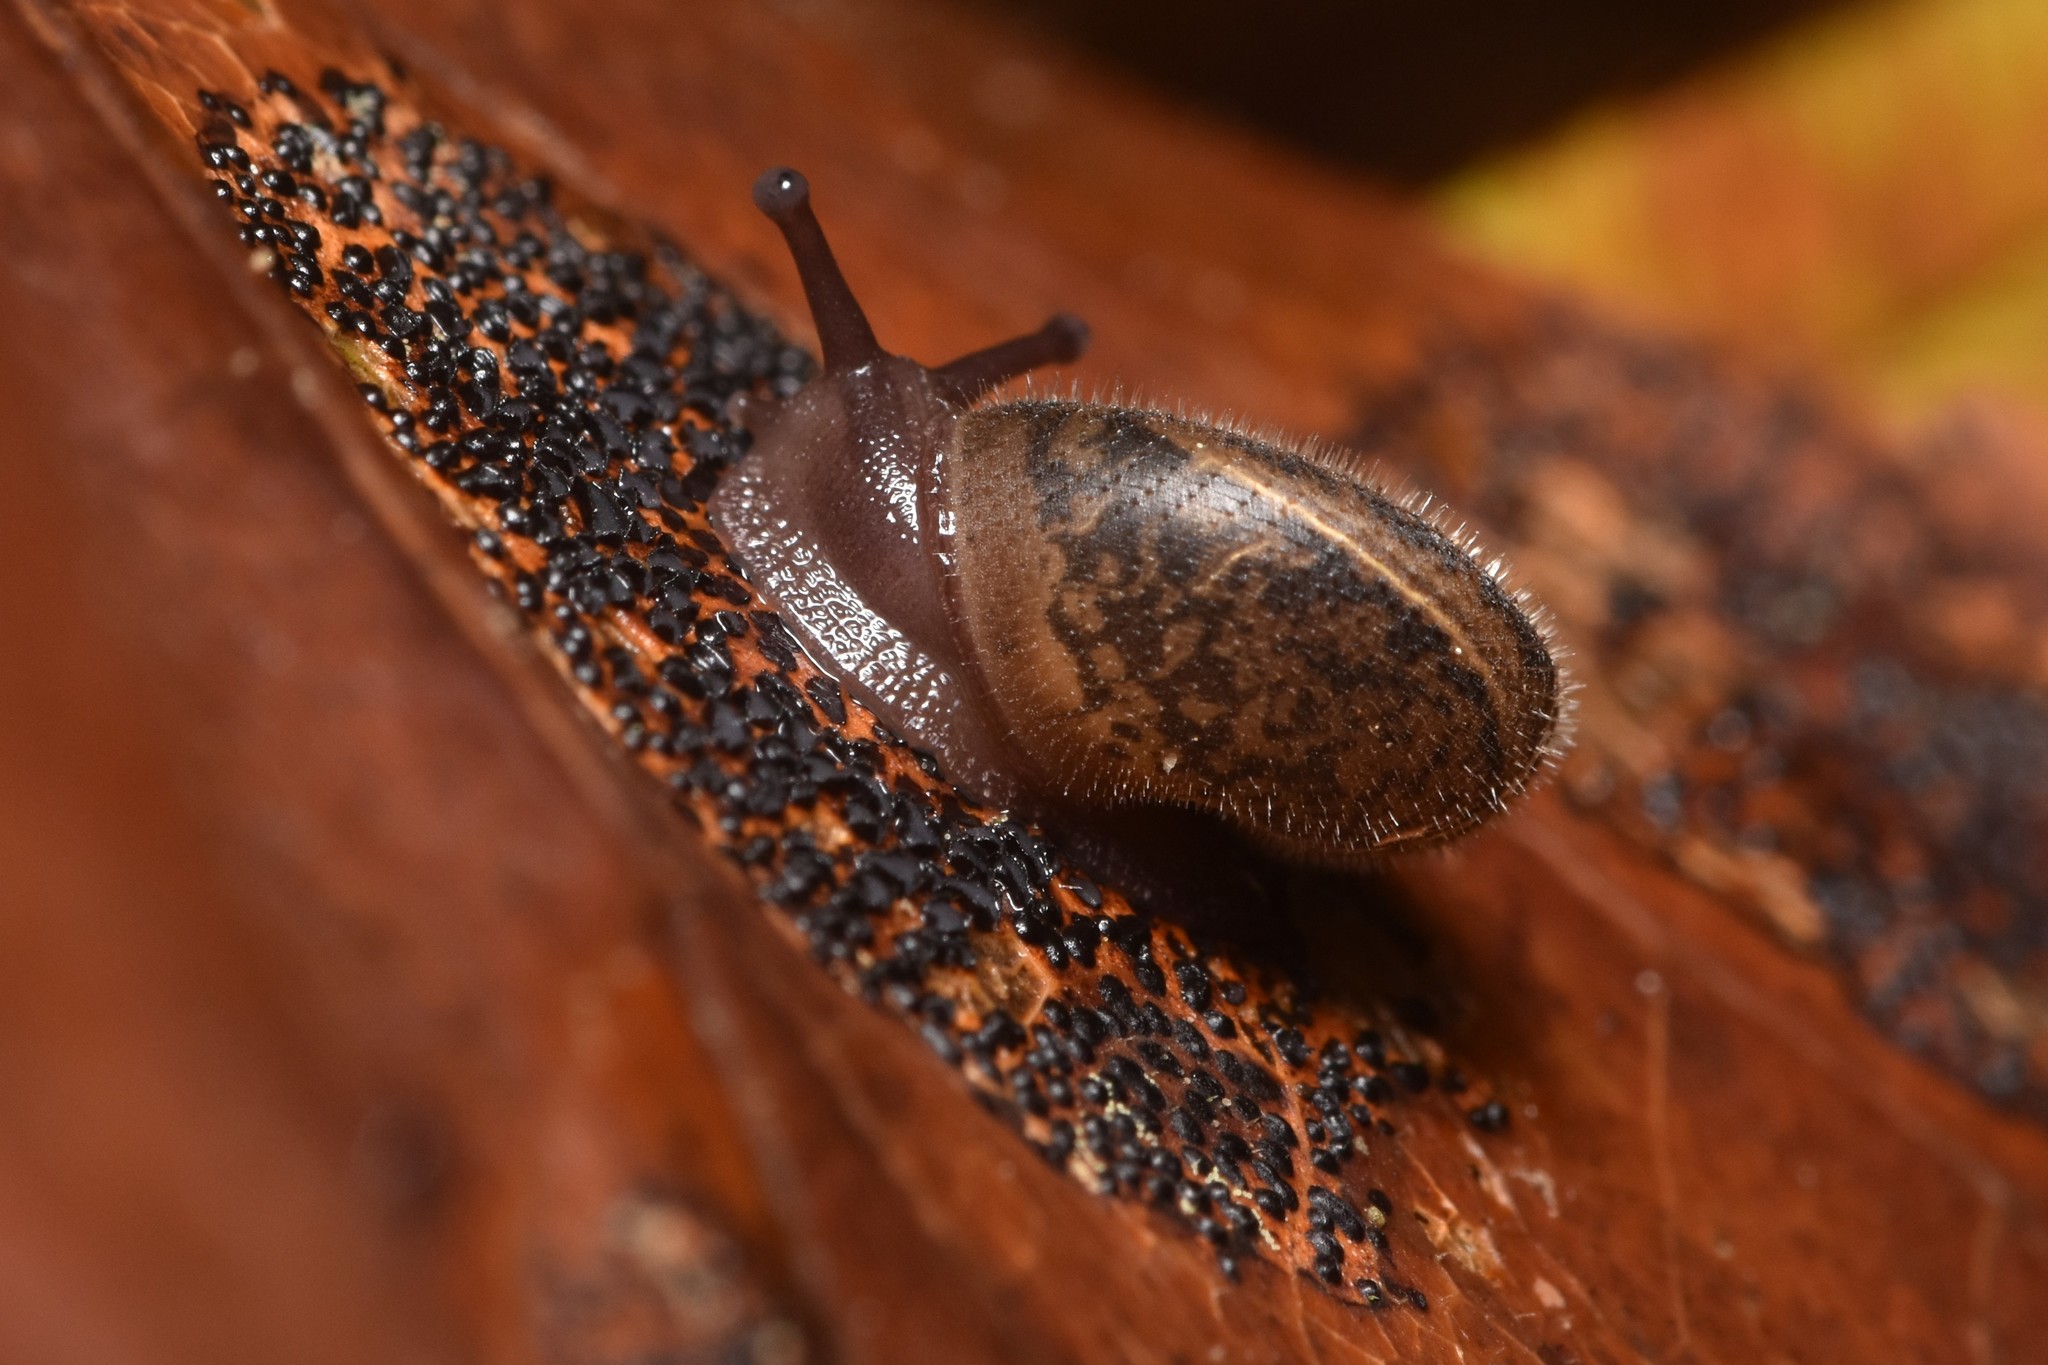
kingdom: Animalia
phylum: Mollusca
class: Gastropoda
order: Stylommatophora
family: Polygyridae
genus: Vespericola
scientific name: Vespericola columbianus
